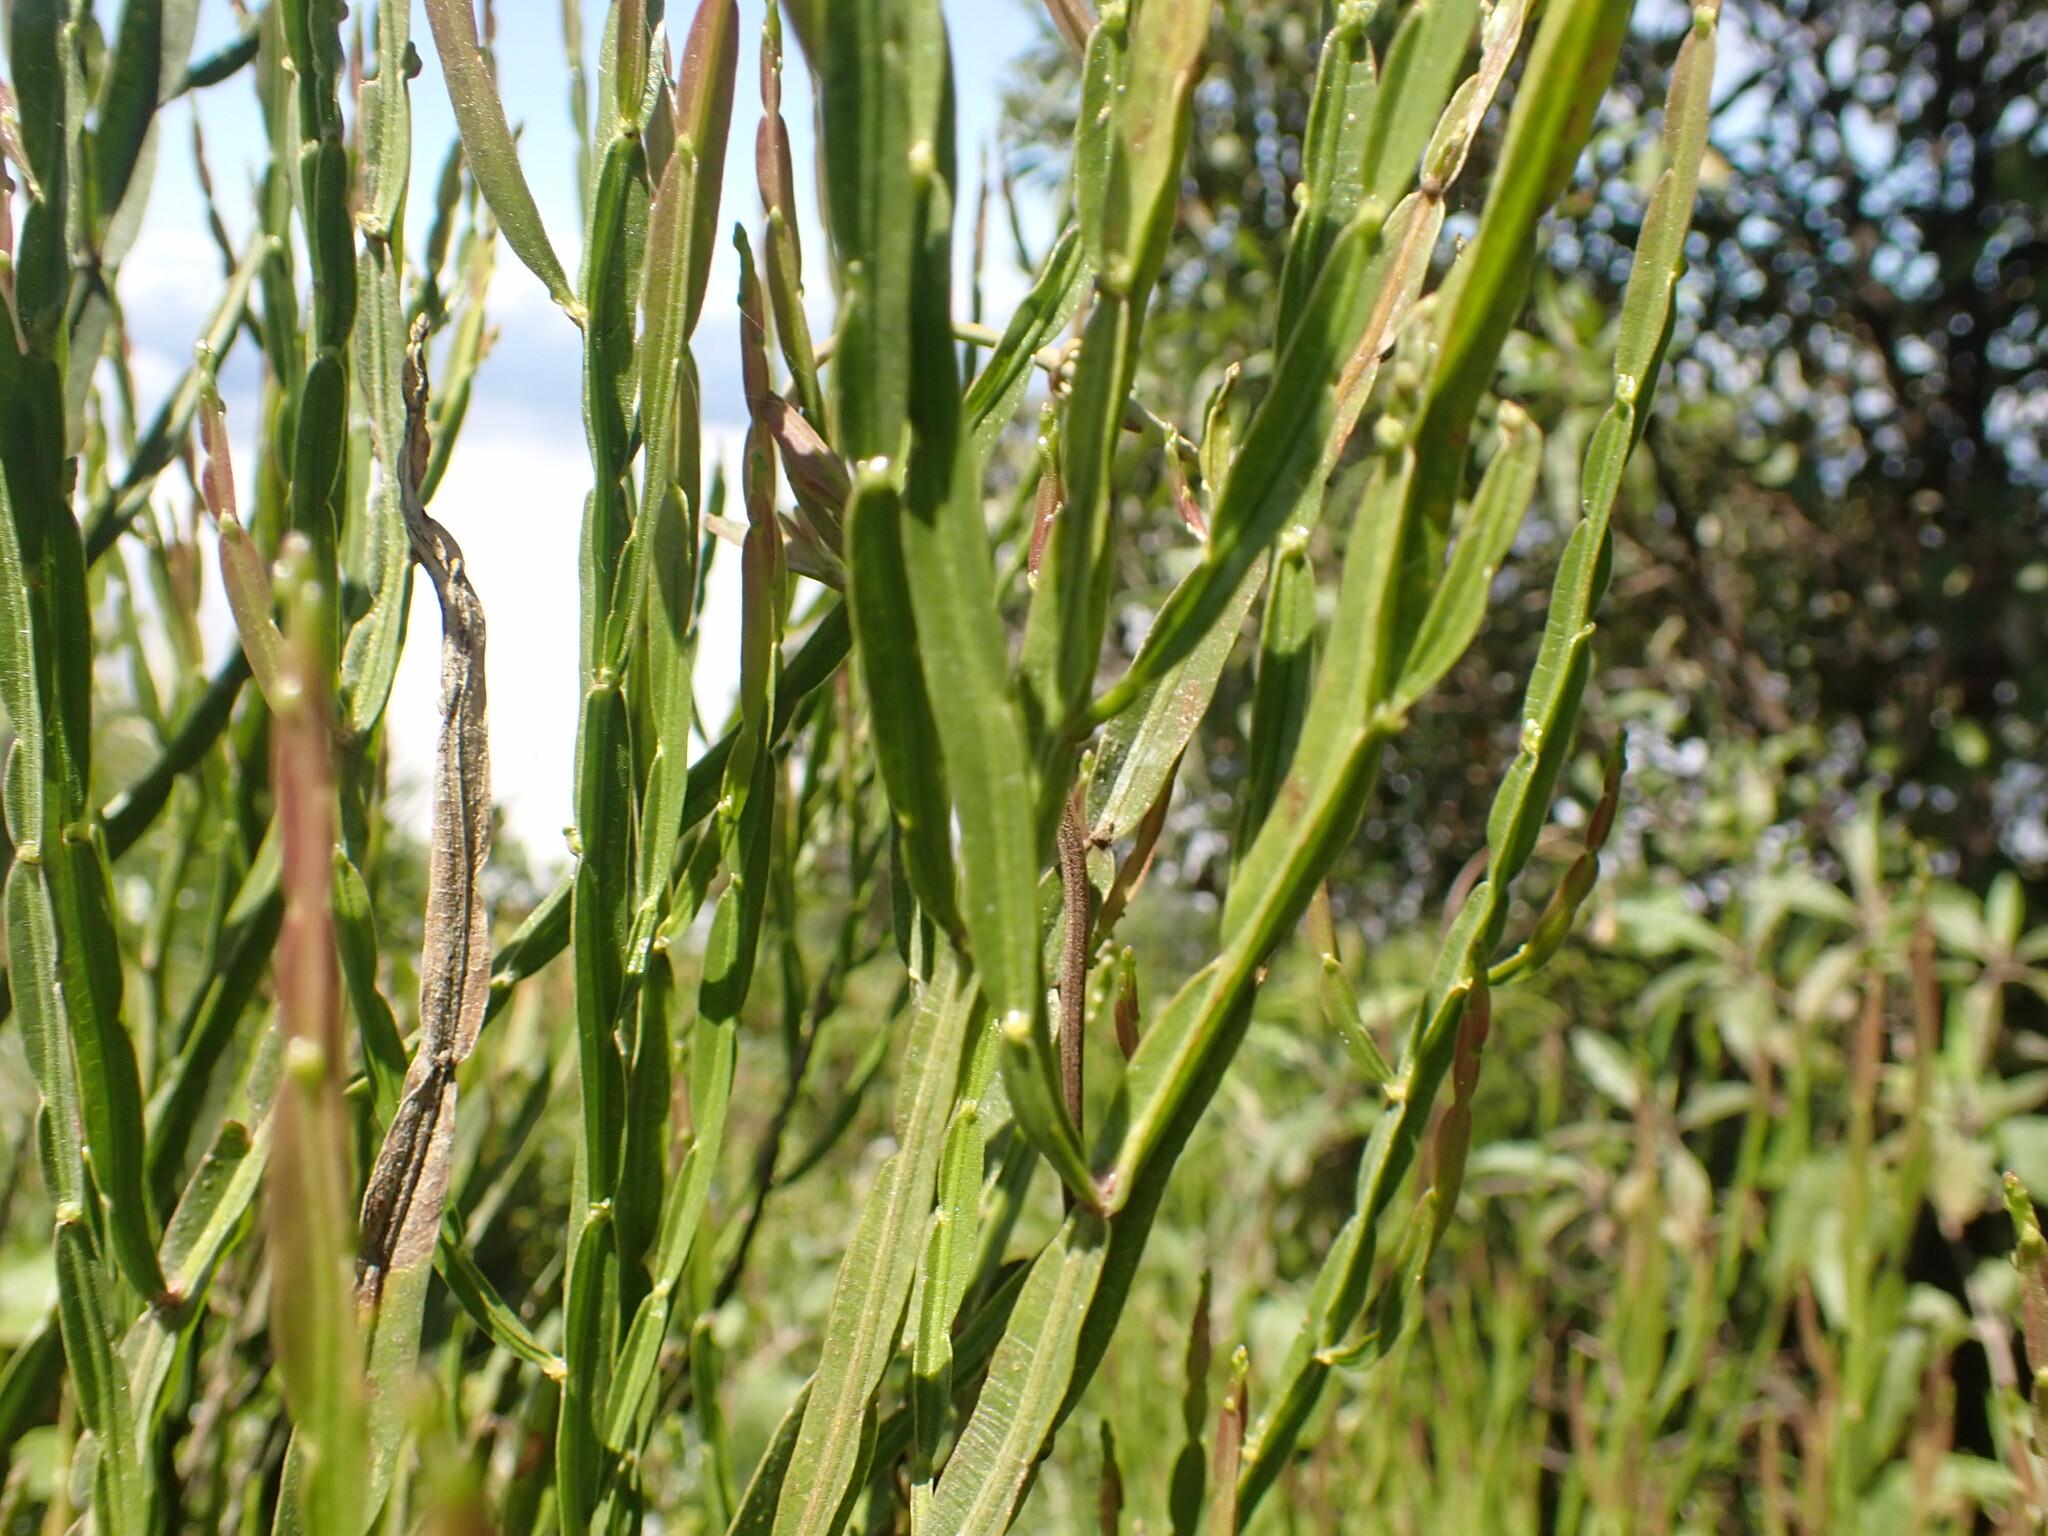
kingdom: Plantae
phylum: Tracheophyta
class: Magnoliopsida
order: Asterales
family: Asteraceae
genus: Baccharis
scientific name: Baccharis trimera
